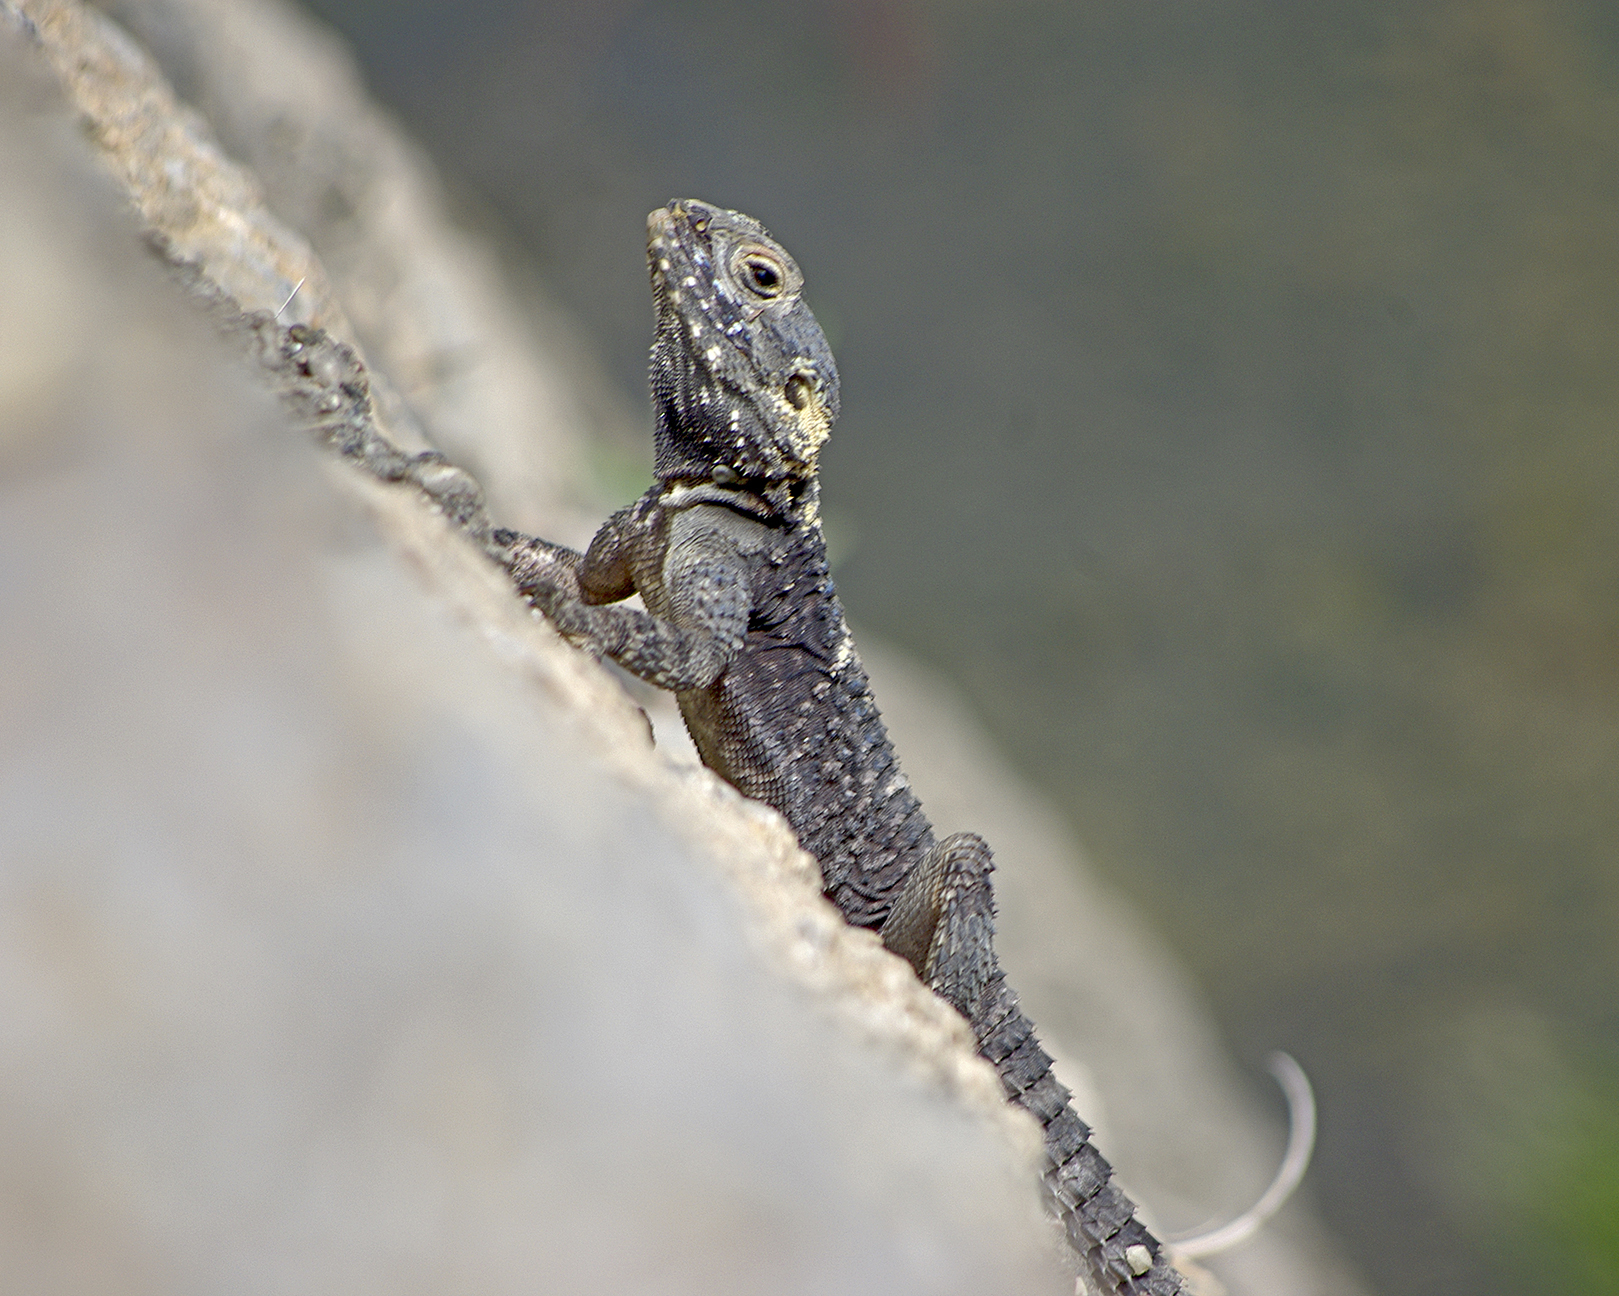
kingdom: Animalia
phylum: Chordata
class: Squamata
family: Agamidae
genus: Stellagama
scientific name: Stellagama stellio
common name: Starred agama
